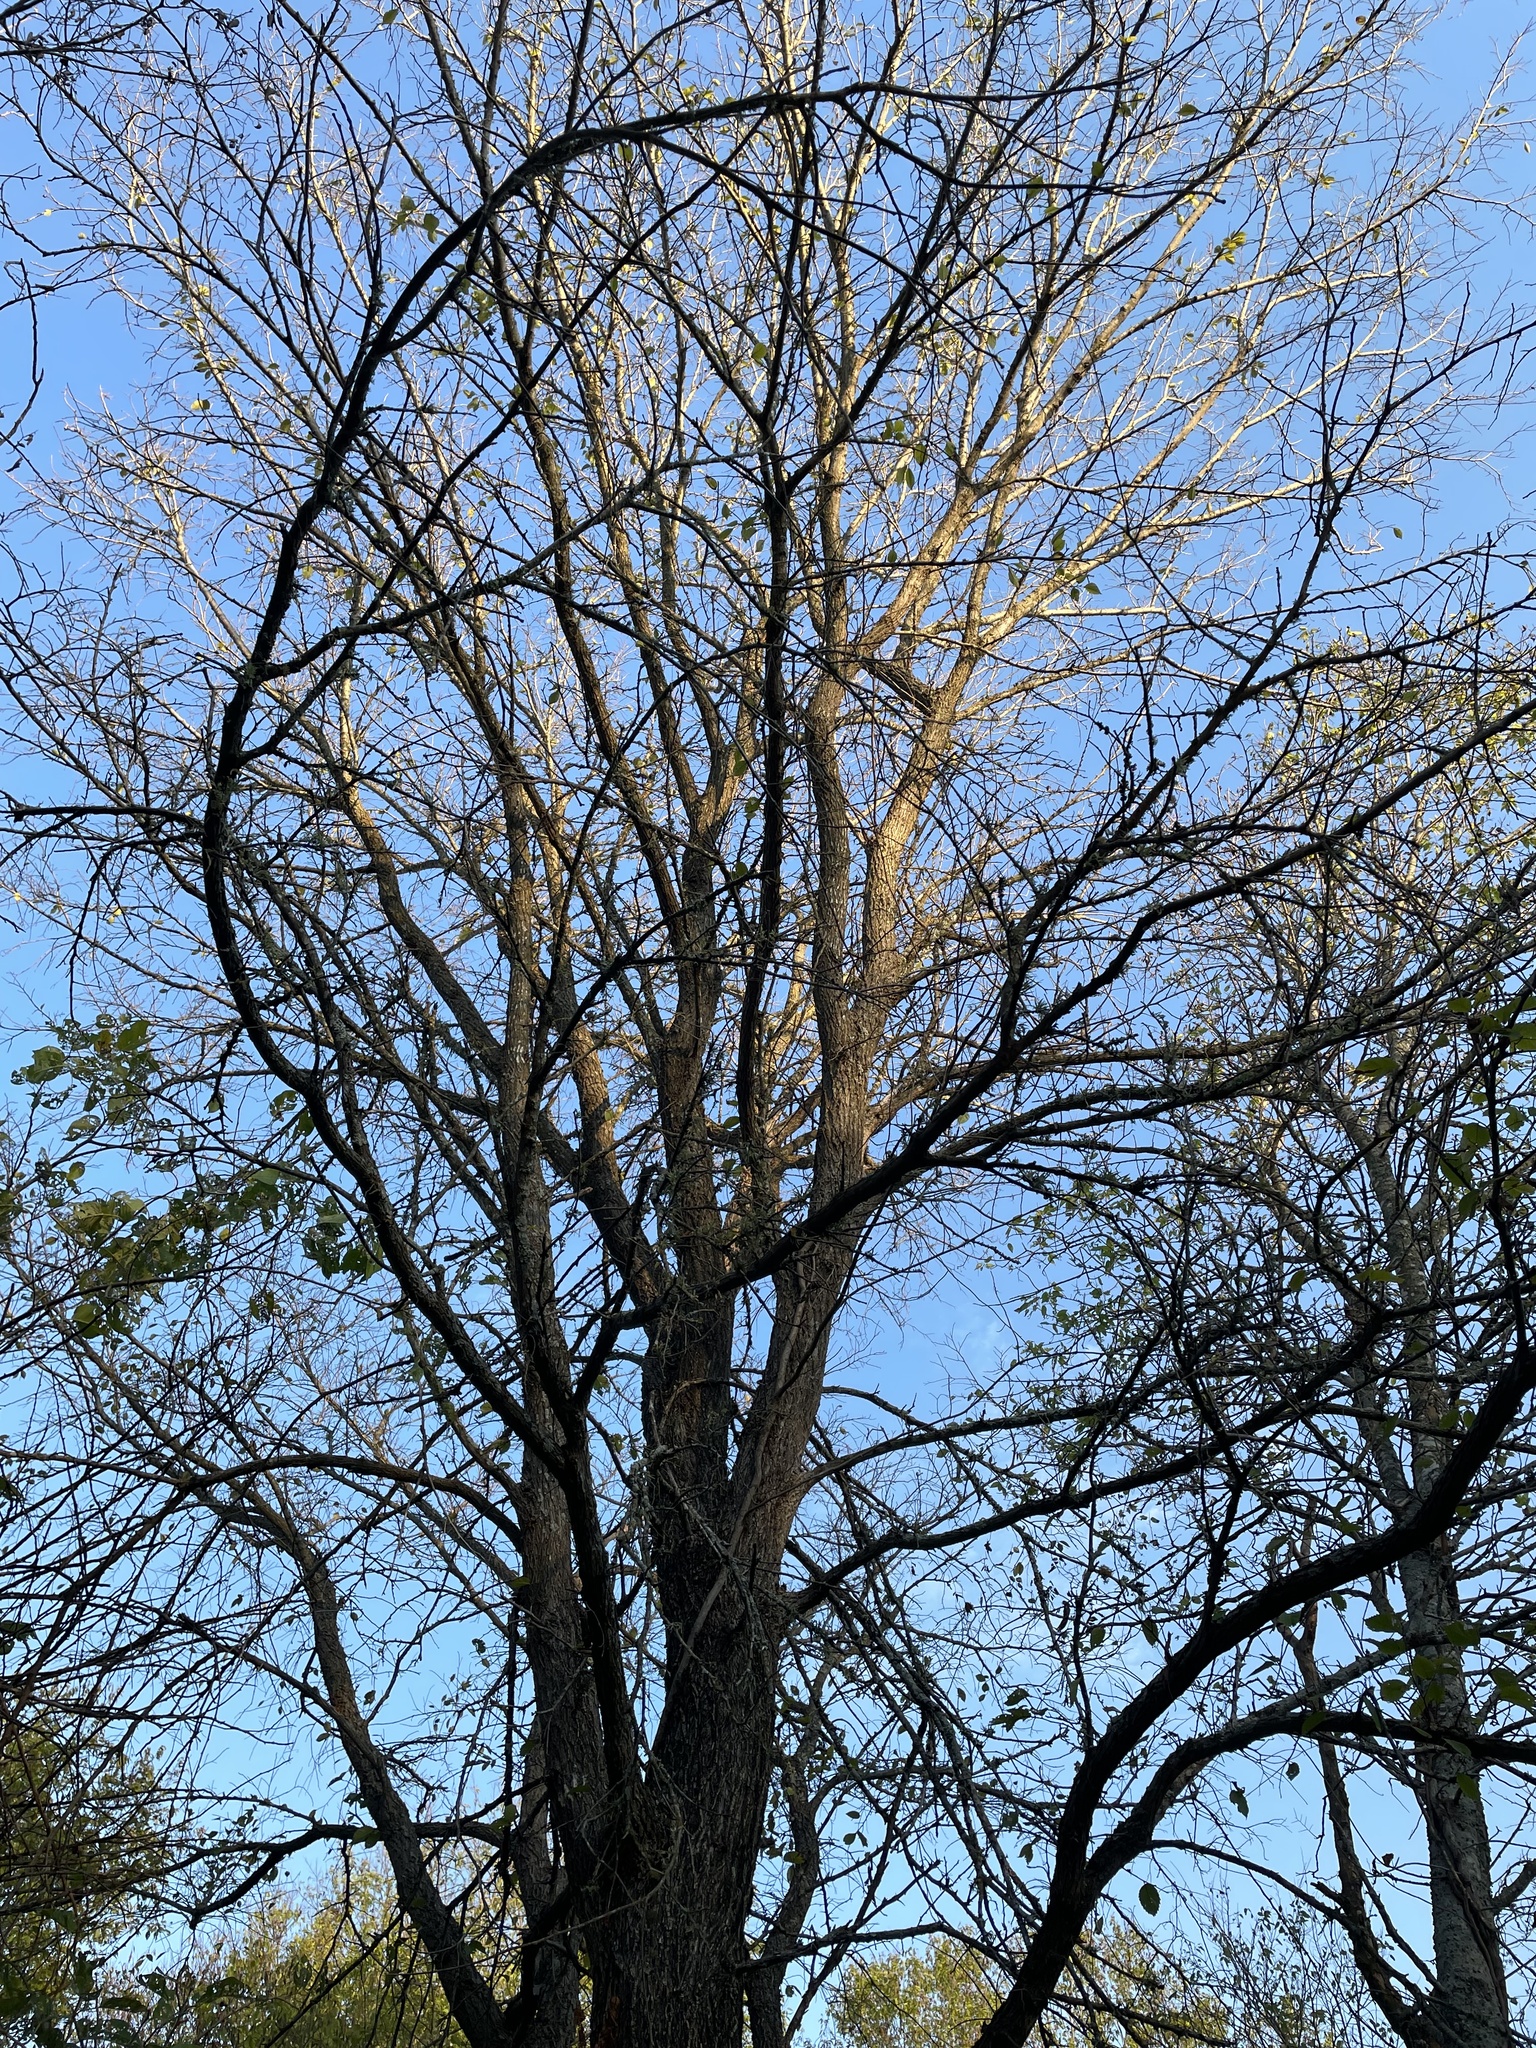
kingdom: Plantae
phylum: Tracheophyta
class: Magnoliopsida
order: Rosales
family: Ulmaceae
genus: Ulmus
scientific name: Ulmus americana
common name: American elm
